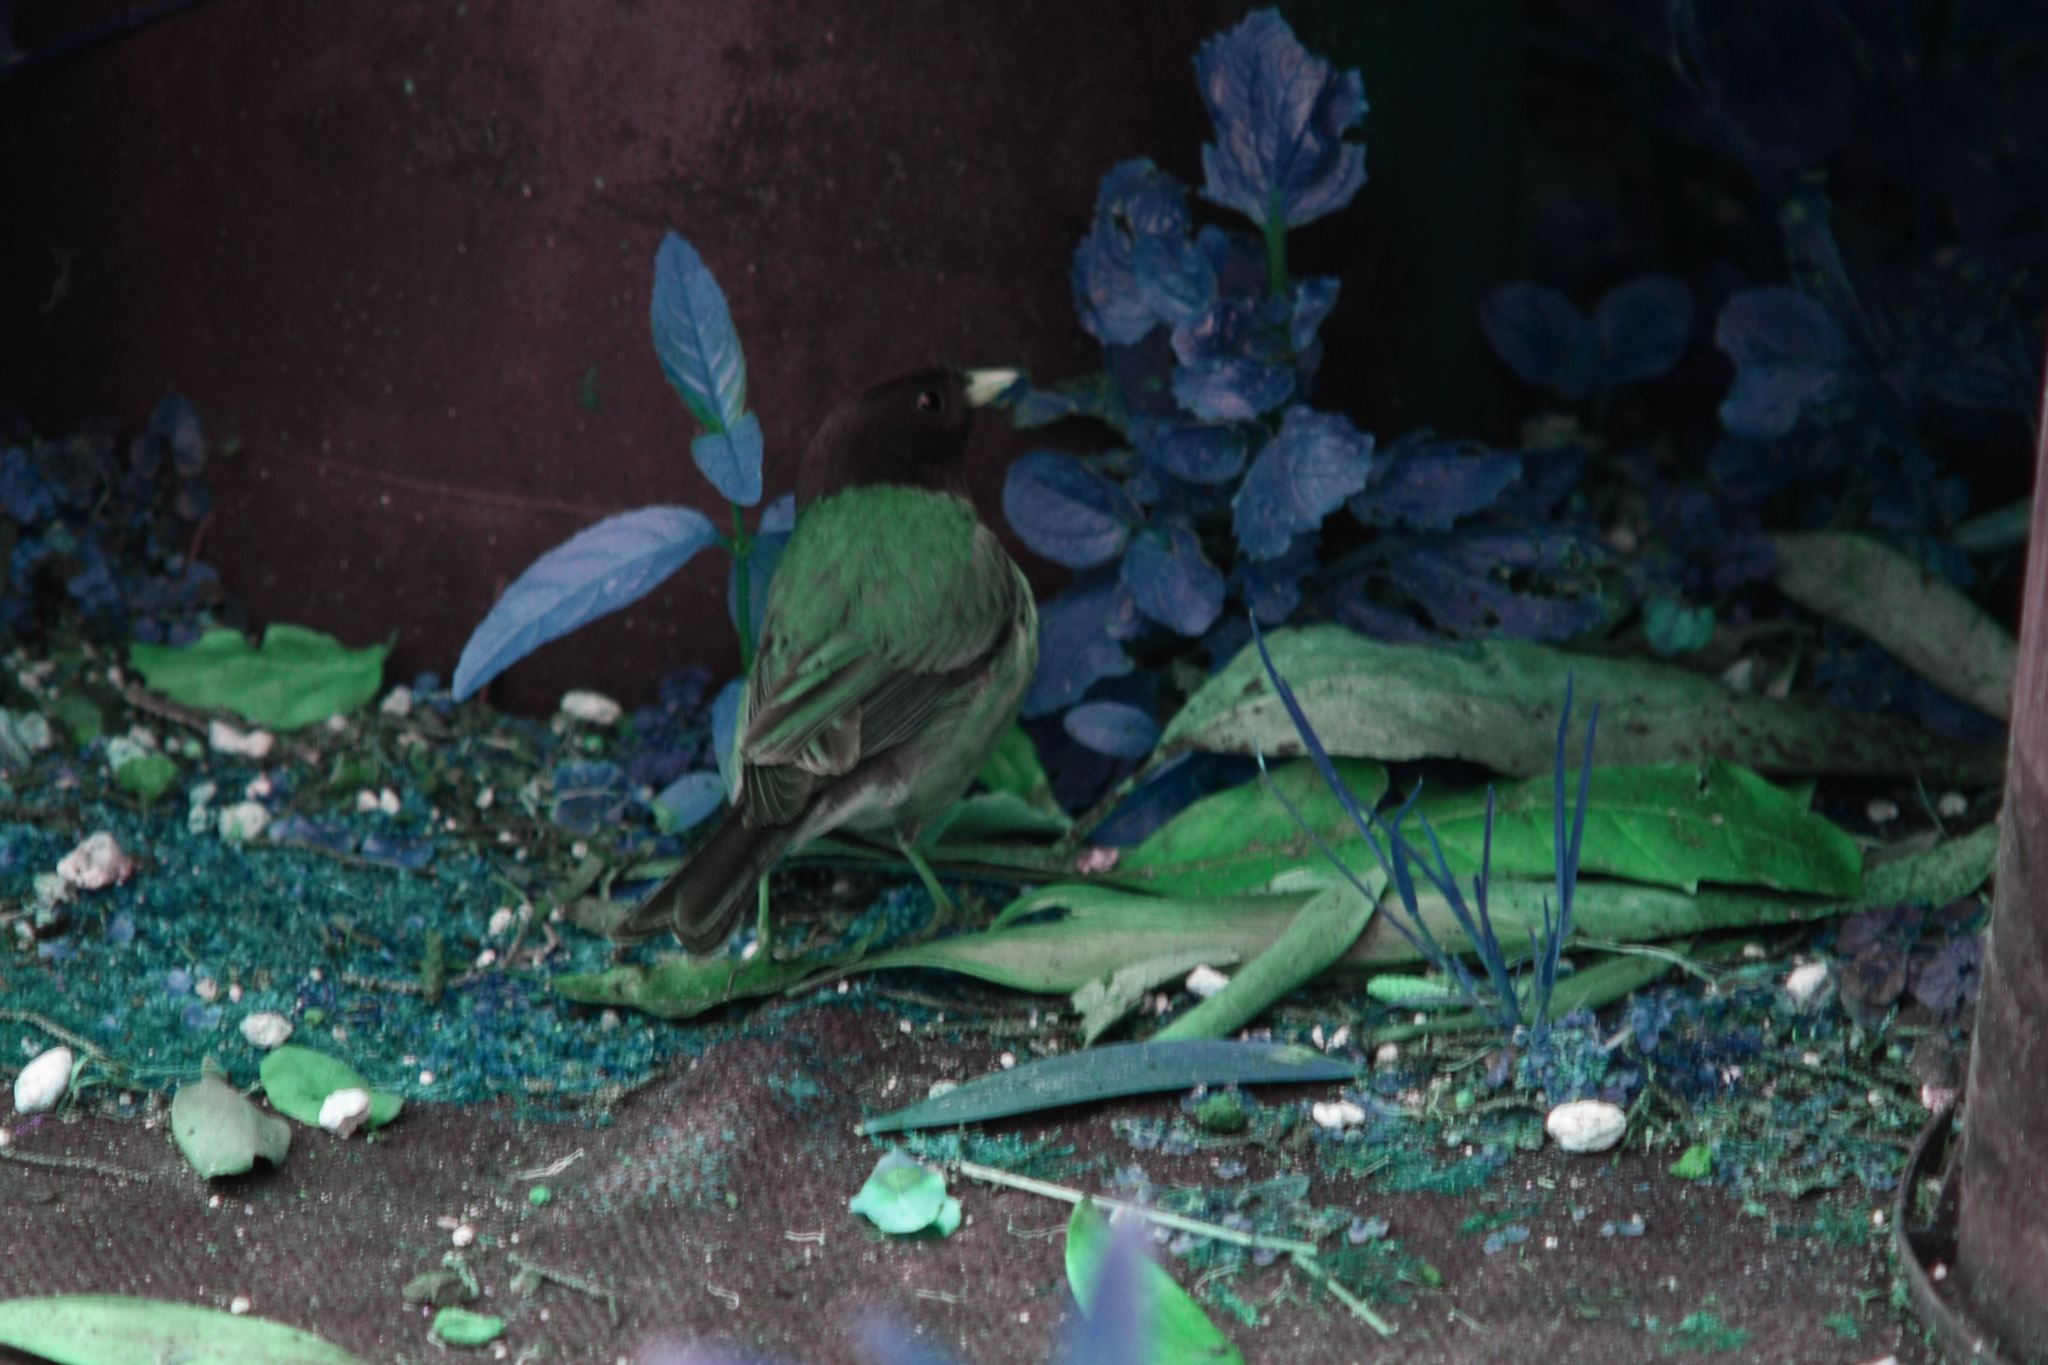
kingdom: Animalia
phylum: Chordata
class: Aves
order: Passeriformes
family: Passerellidae
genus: Junco
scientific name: Junco hyemalis
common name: Dark-eyed junco
